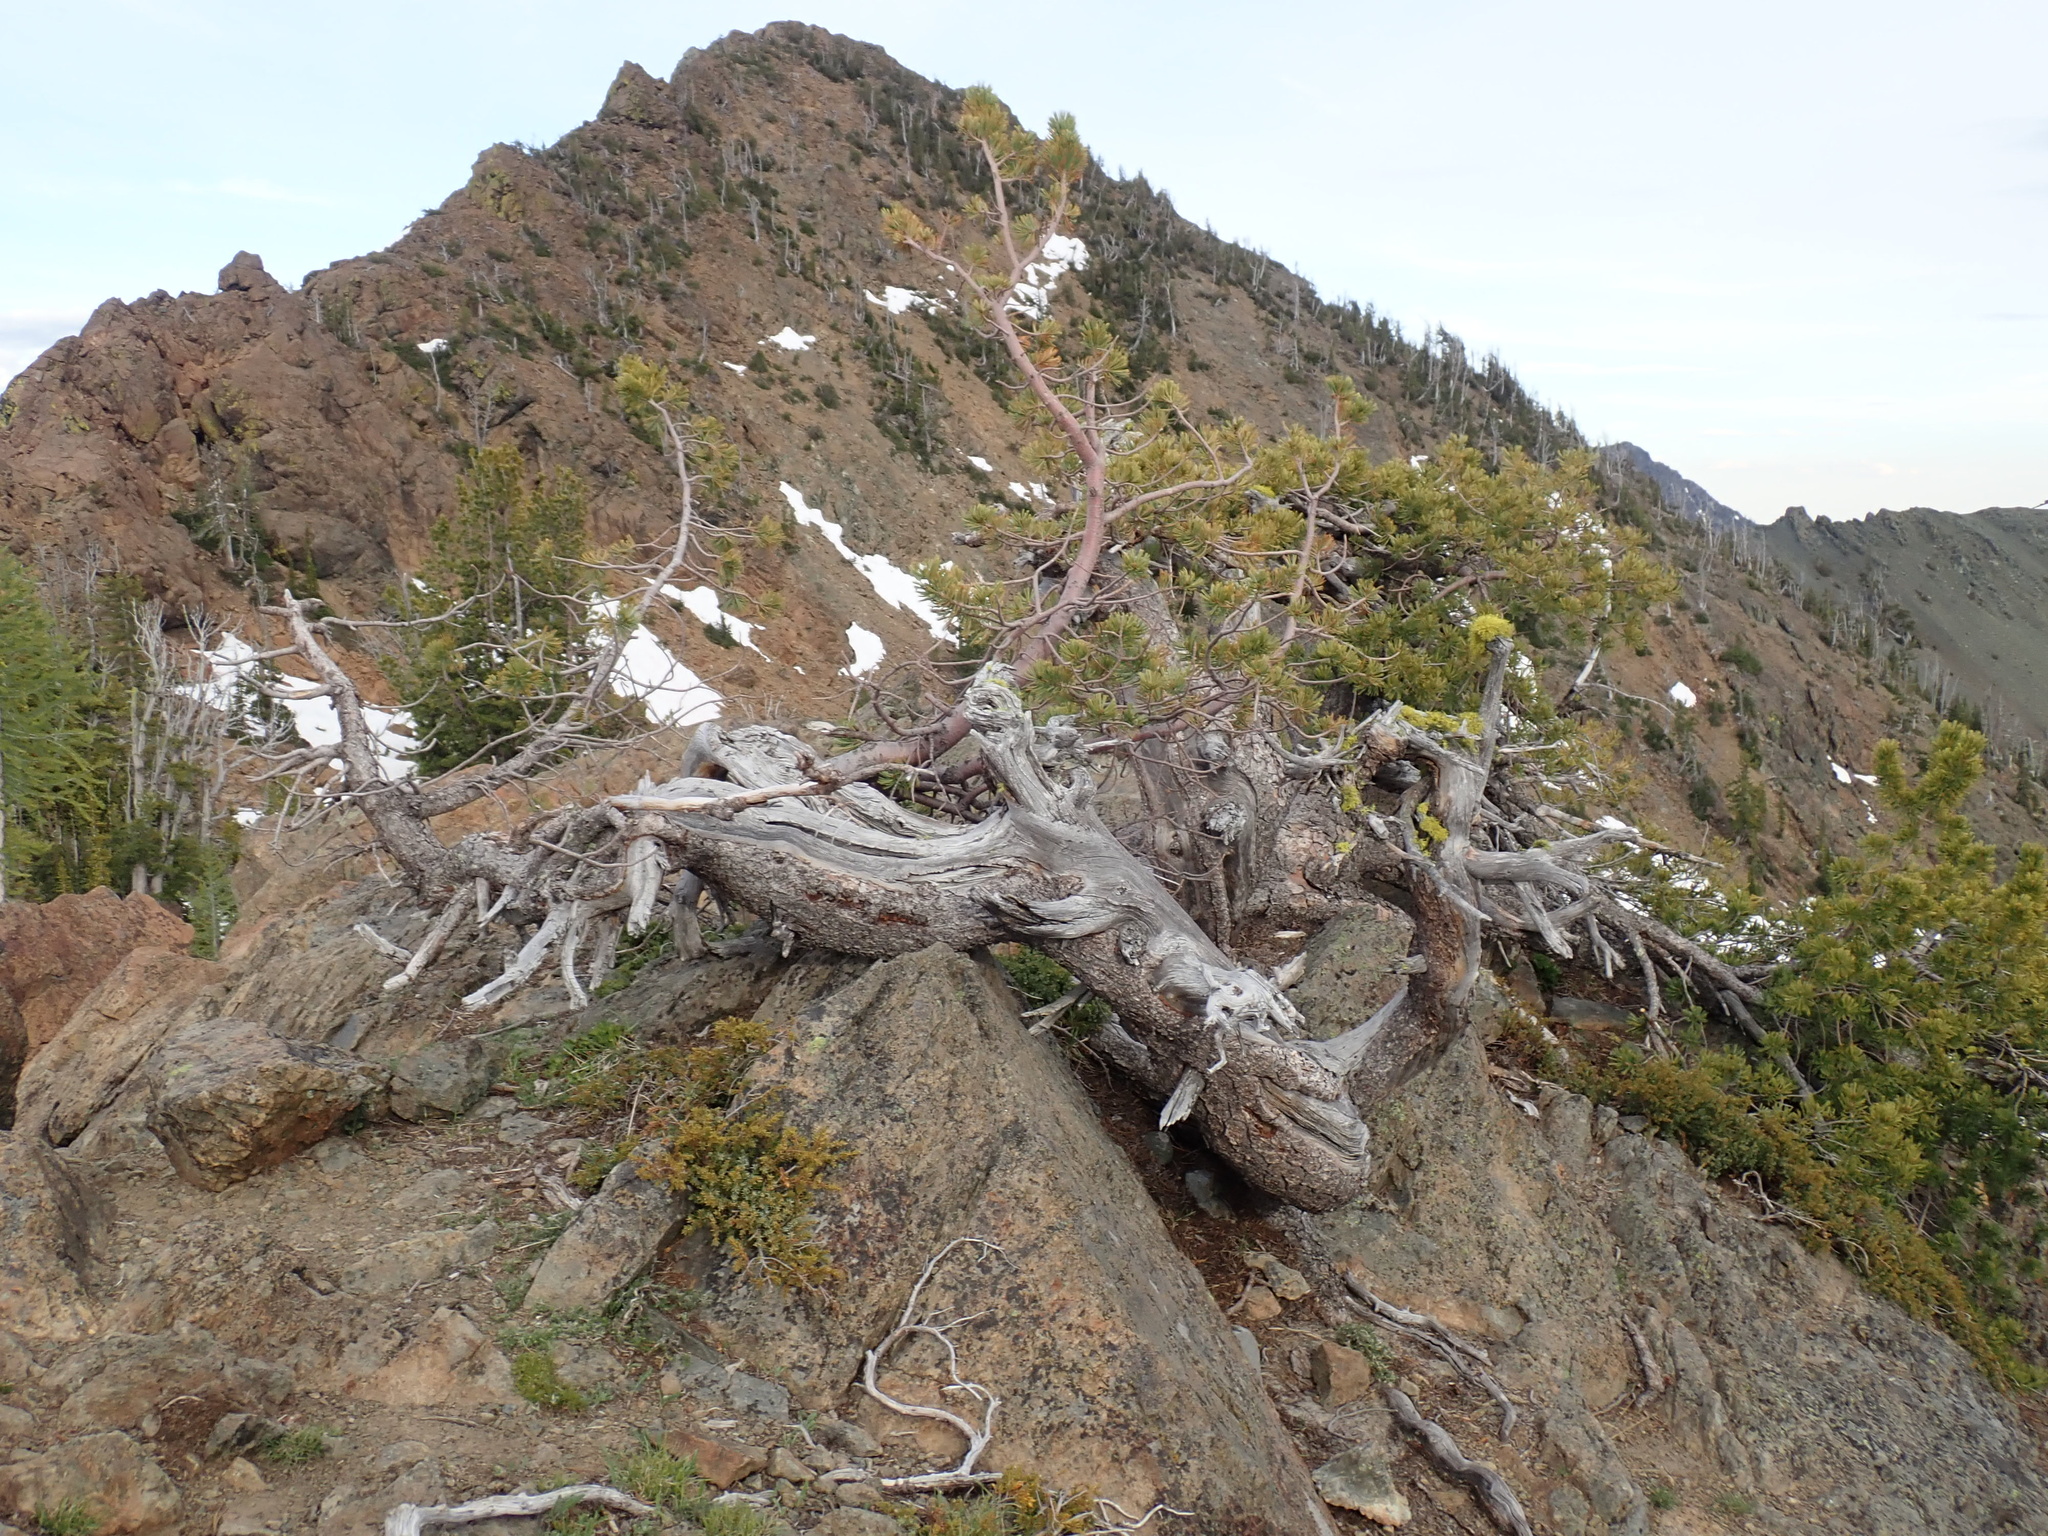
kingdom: Plantae
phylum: Tracheophyta
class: Pinopsida
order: Pinales
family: Pinaceae
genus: Pinus
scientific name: Pinus albicaulis
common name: Whitebark pine
